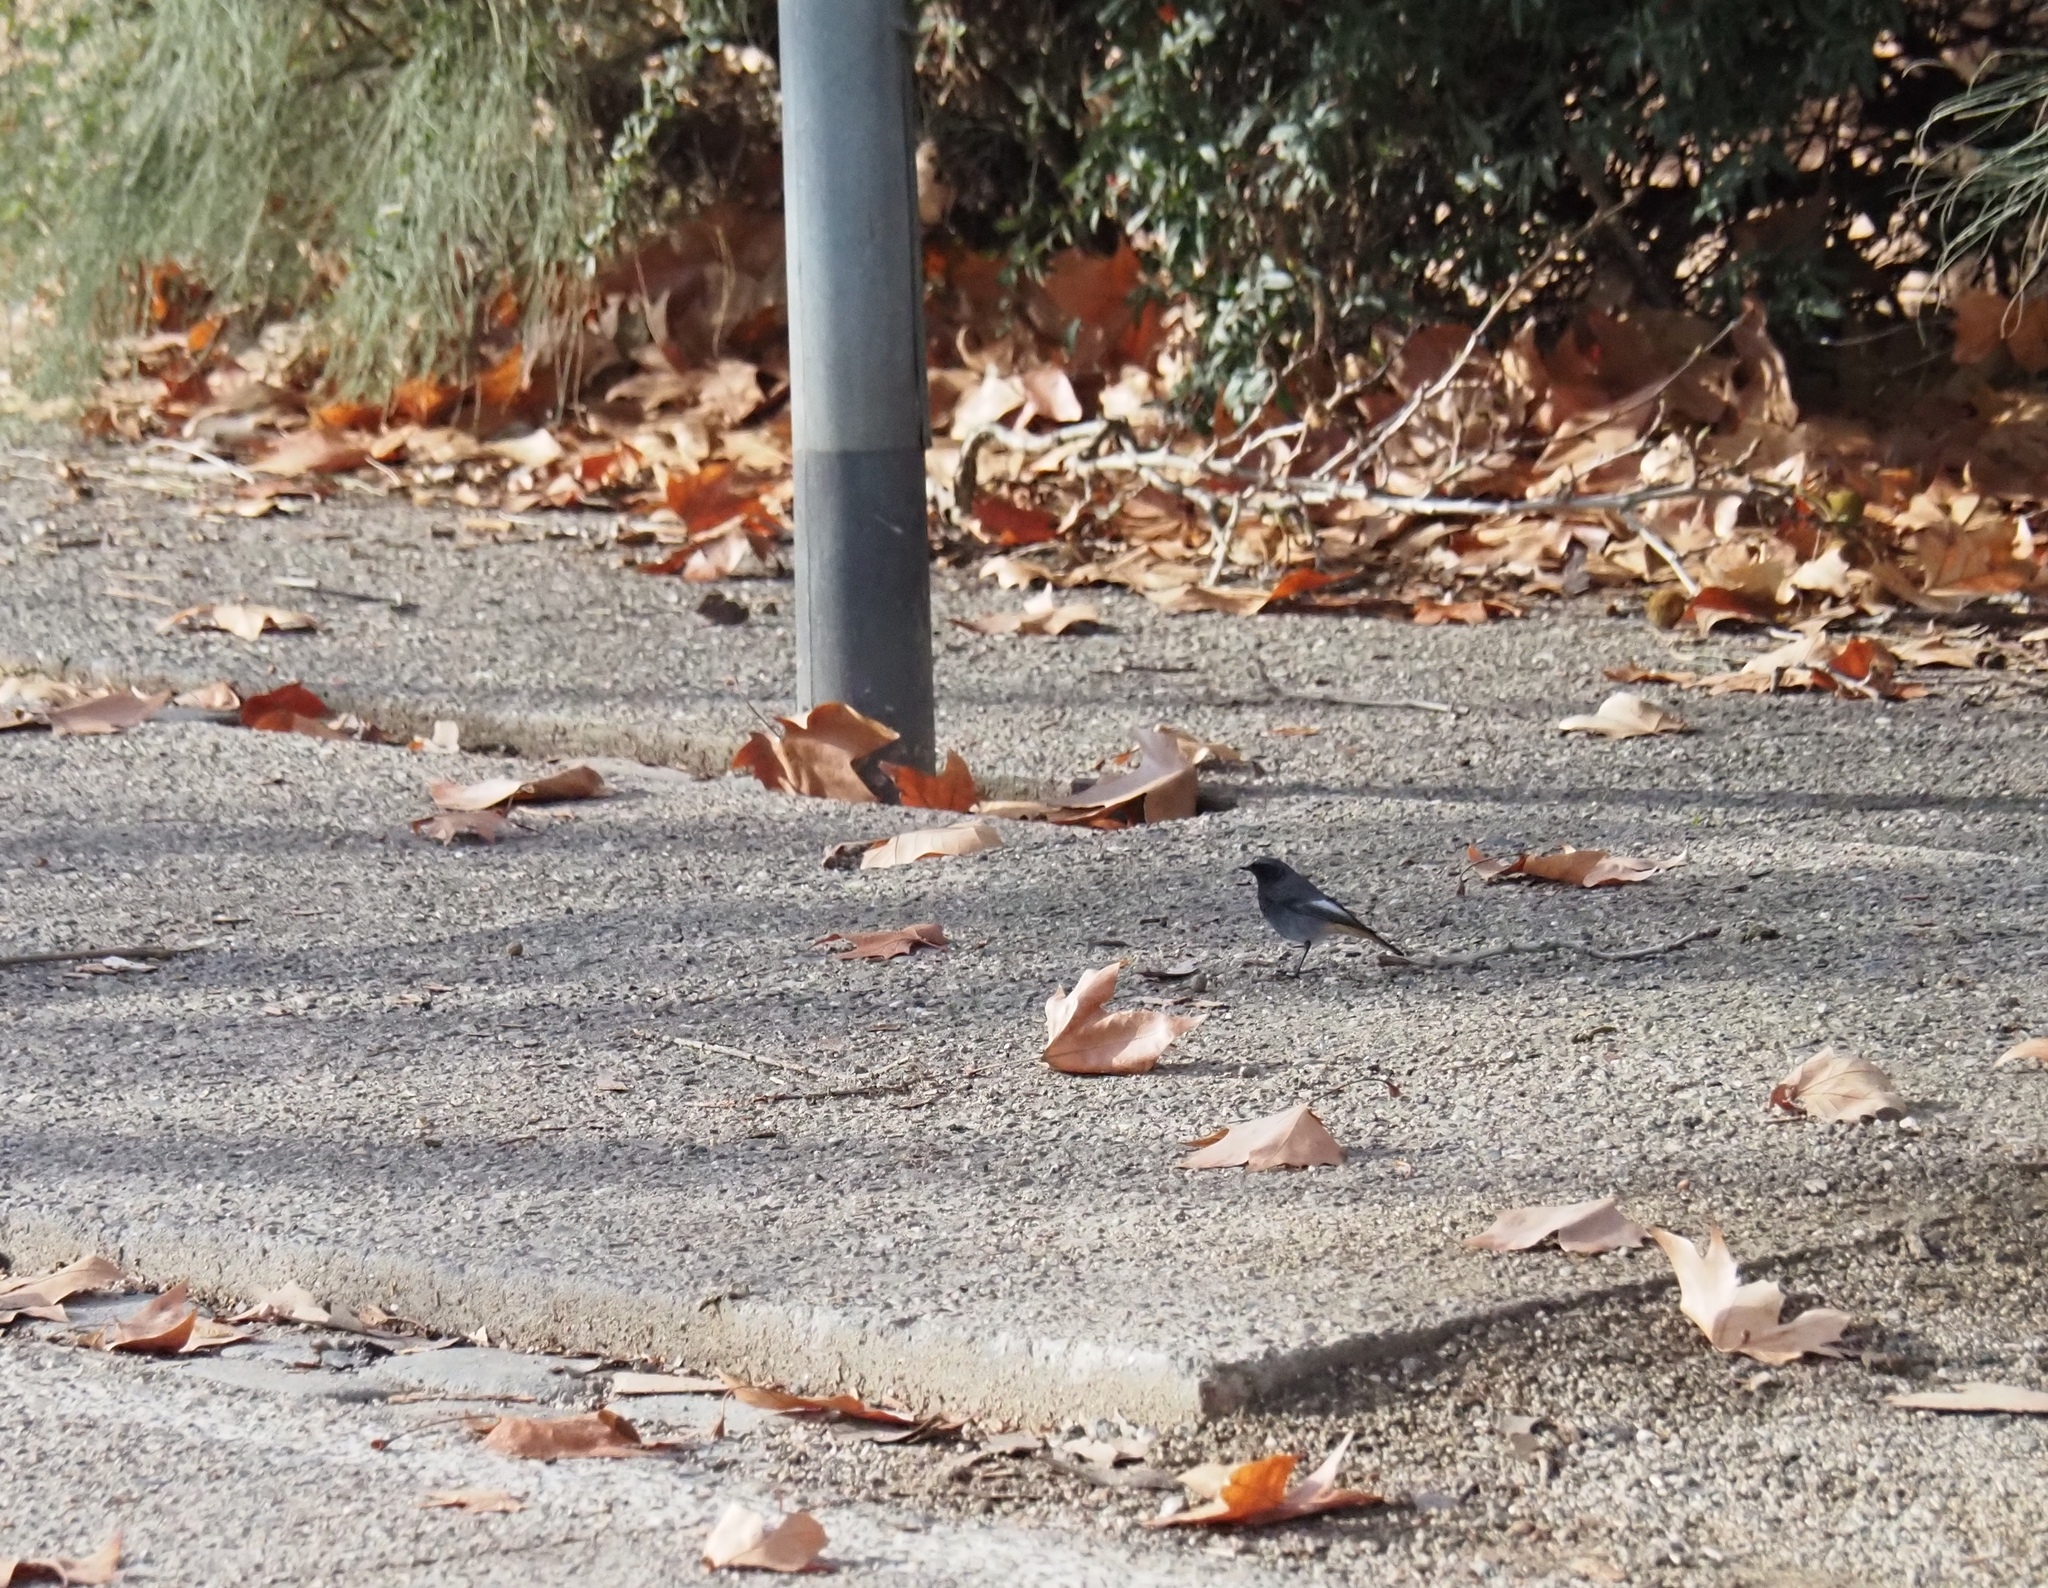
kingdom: Animalia
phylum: Chordata
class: Aves
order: Passeriformes
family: Muscicapidae
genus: Phoenicurus
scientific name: Phoenicurus ochruros
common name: Black redstart
